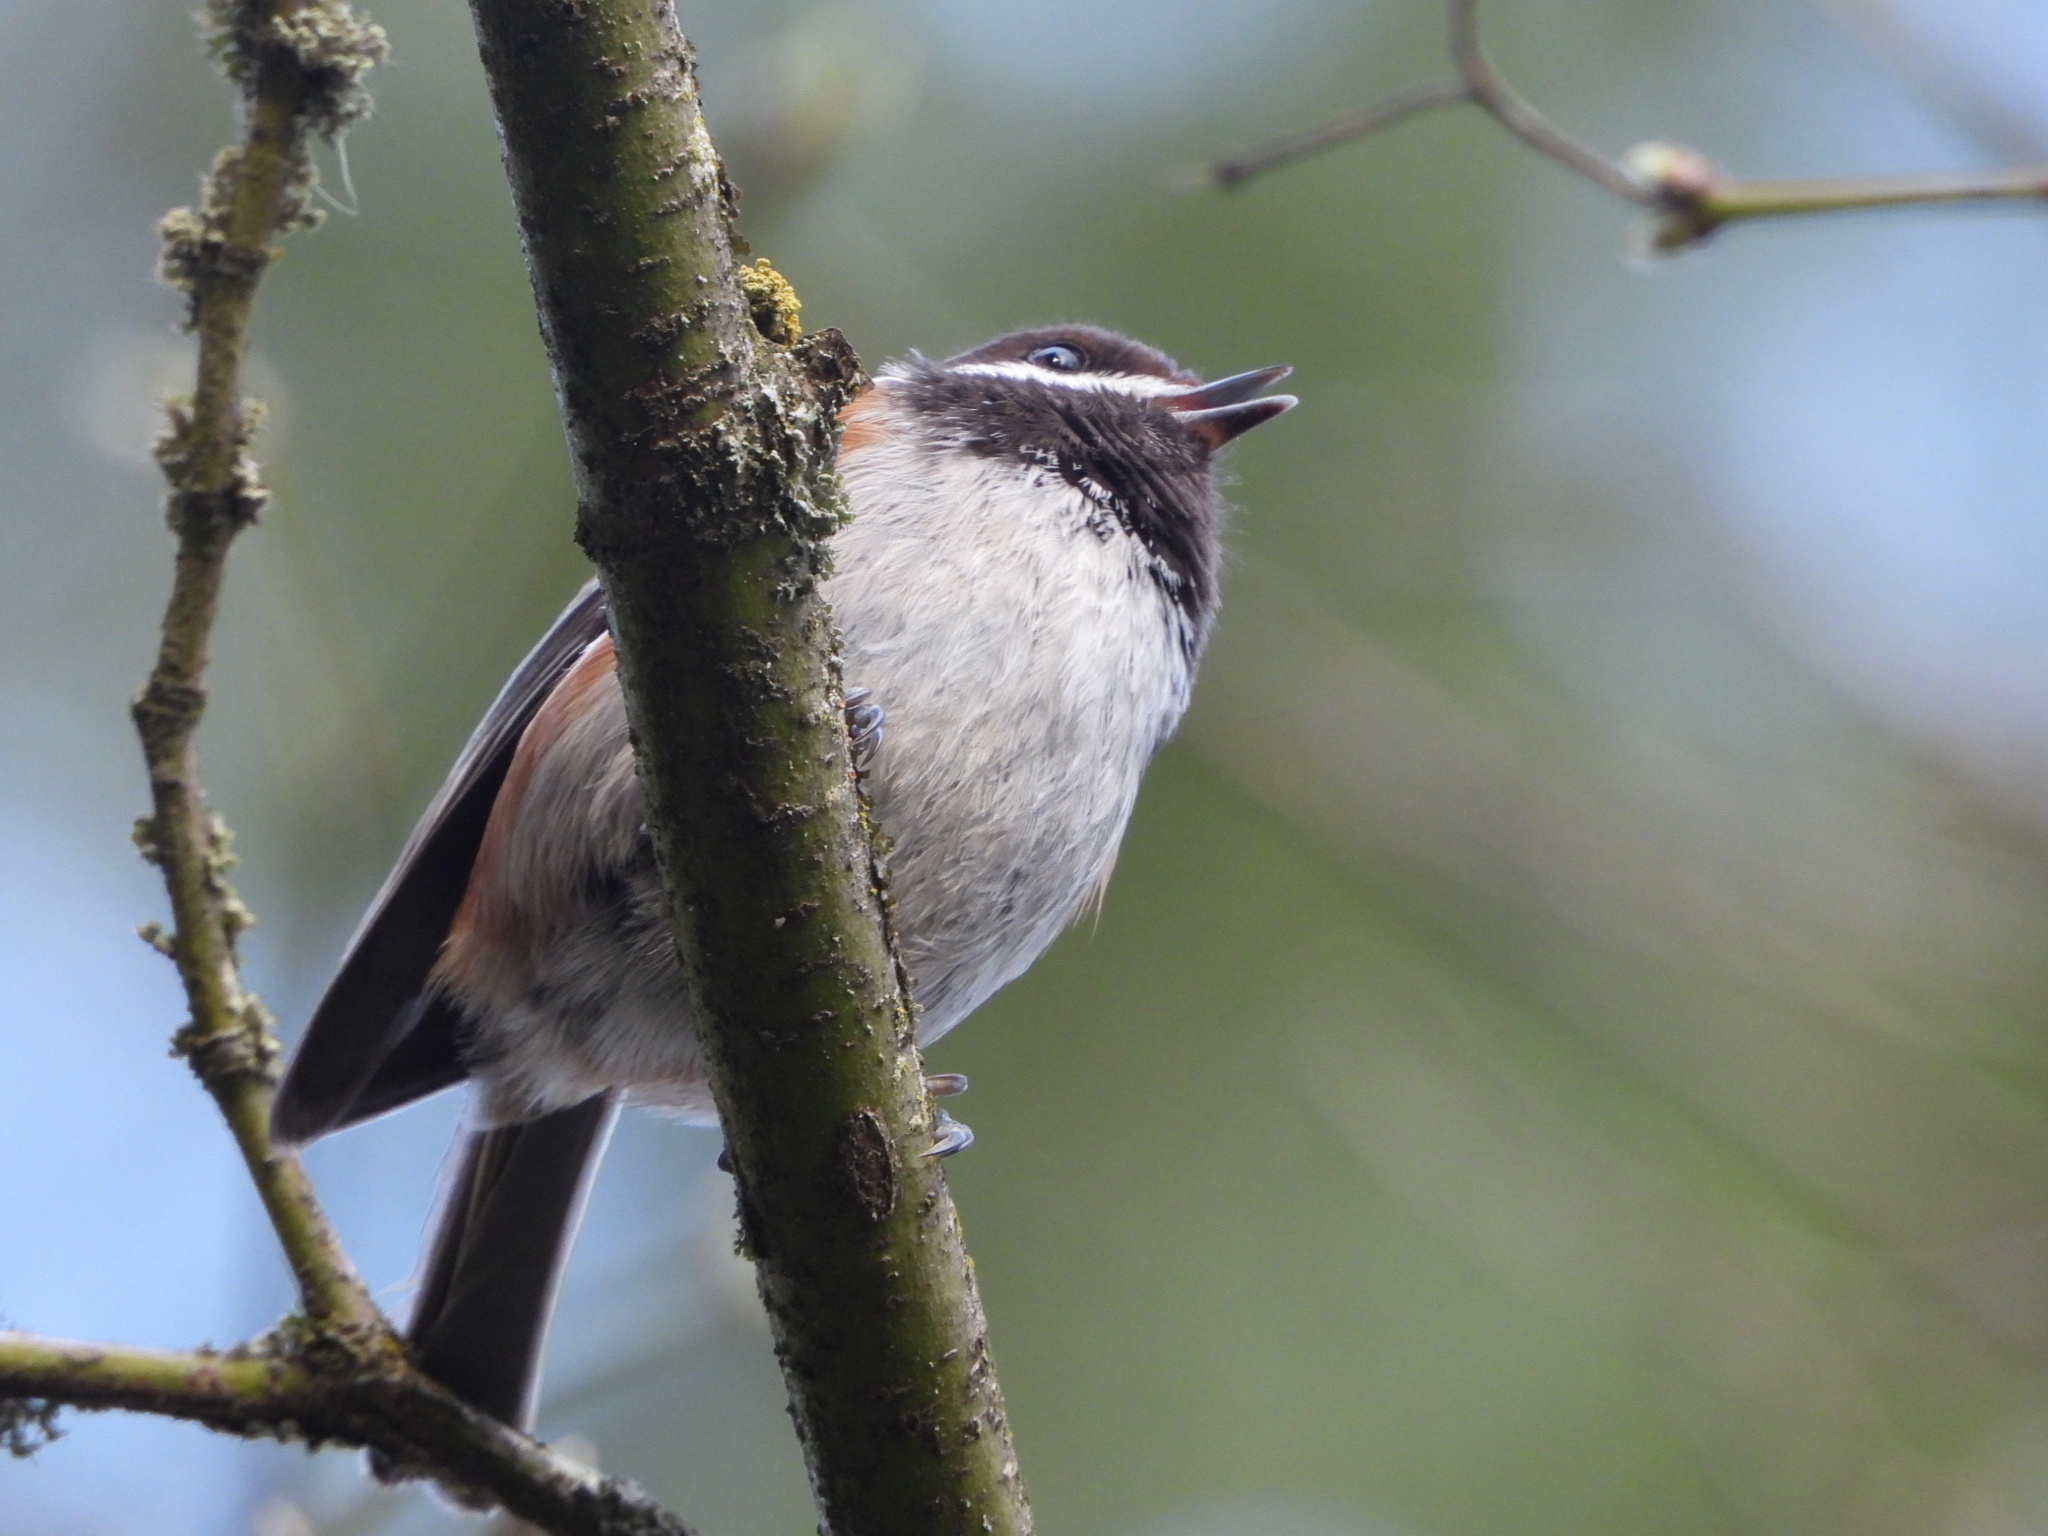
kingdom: Animalia
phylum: Chordata
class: Aves
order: Passeriformes
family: Paridae
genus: Poecile
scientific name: Poecile rufescens
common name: Chestnut-backed chickadee
